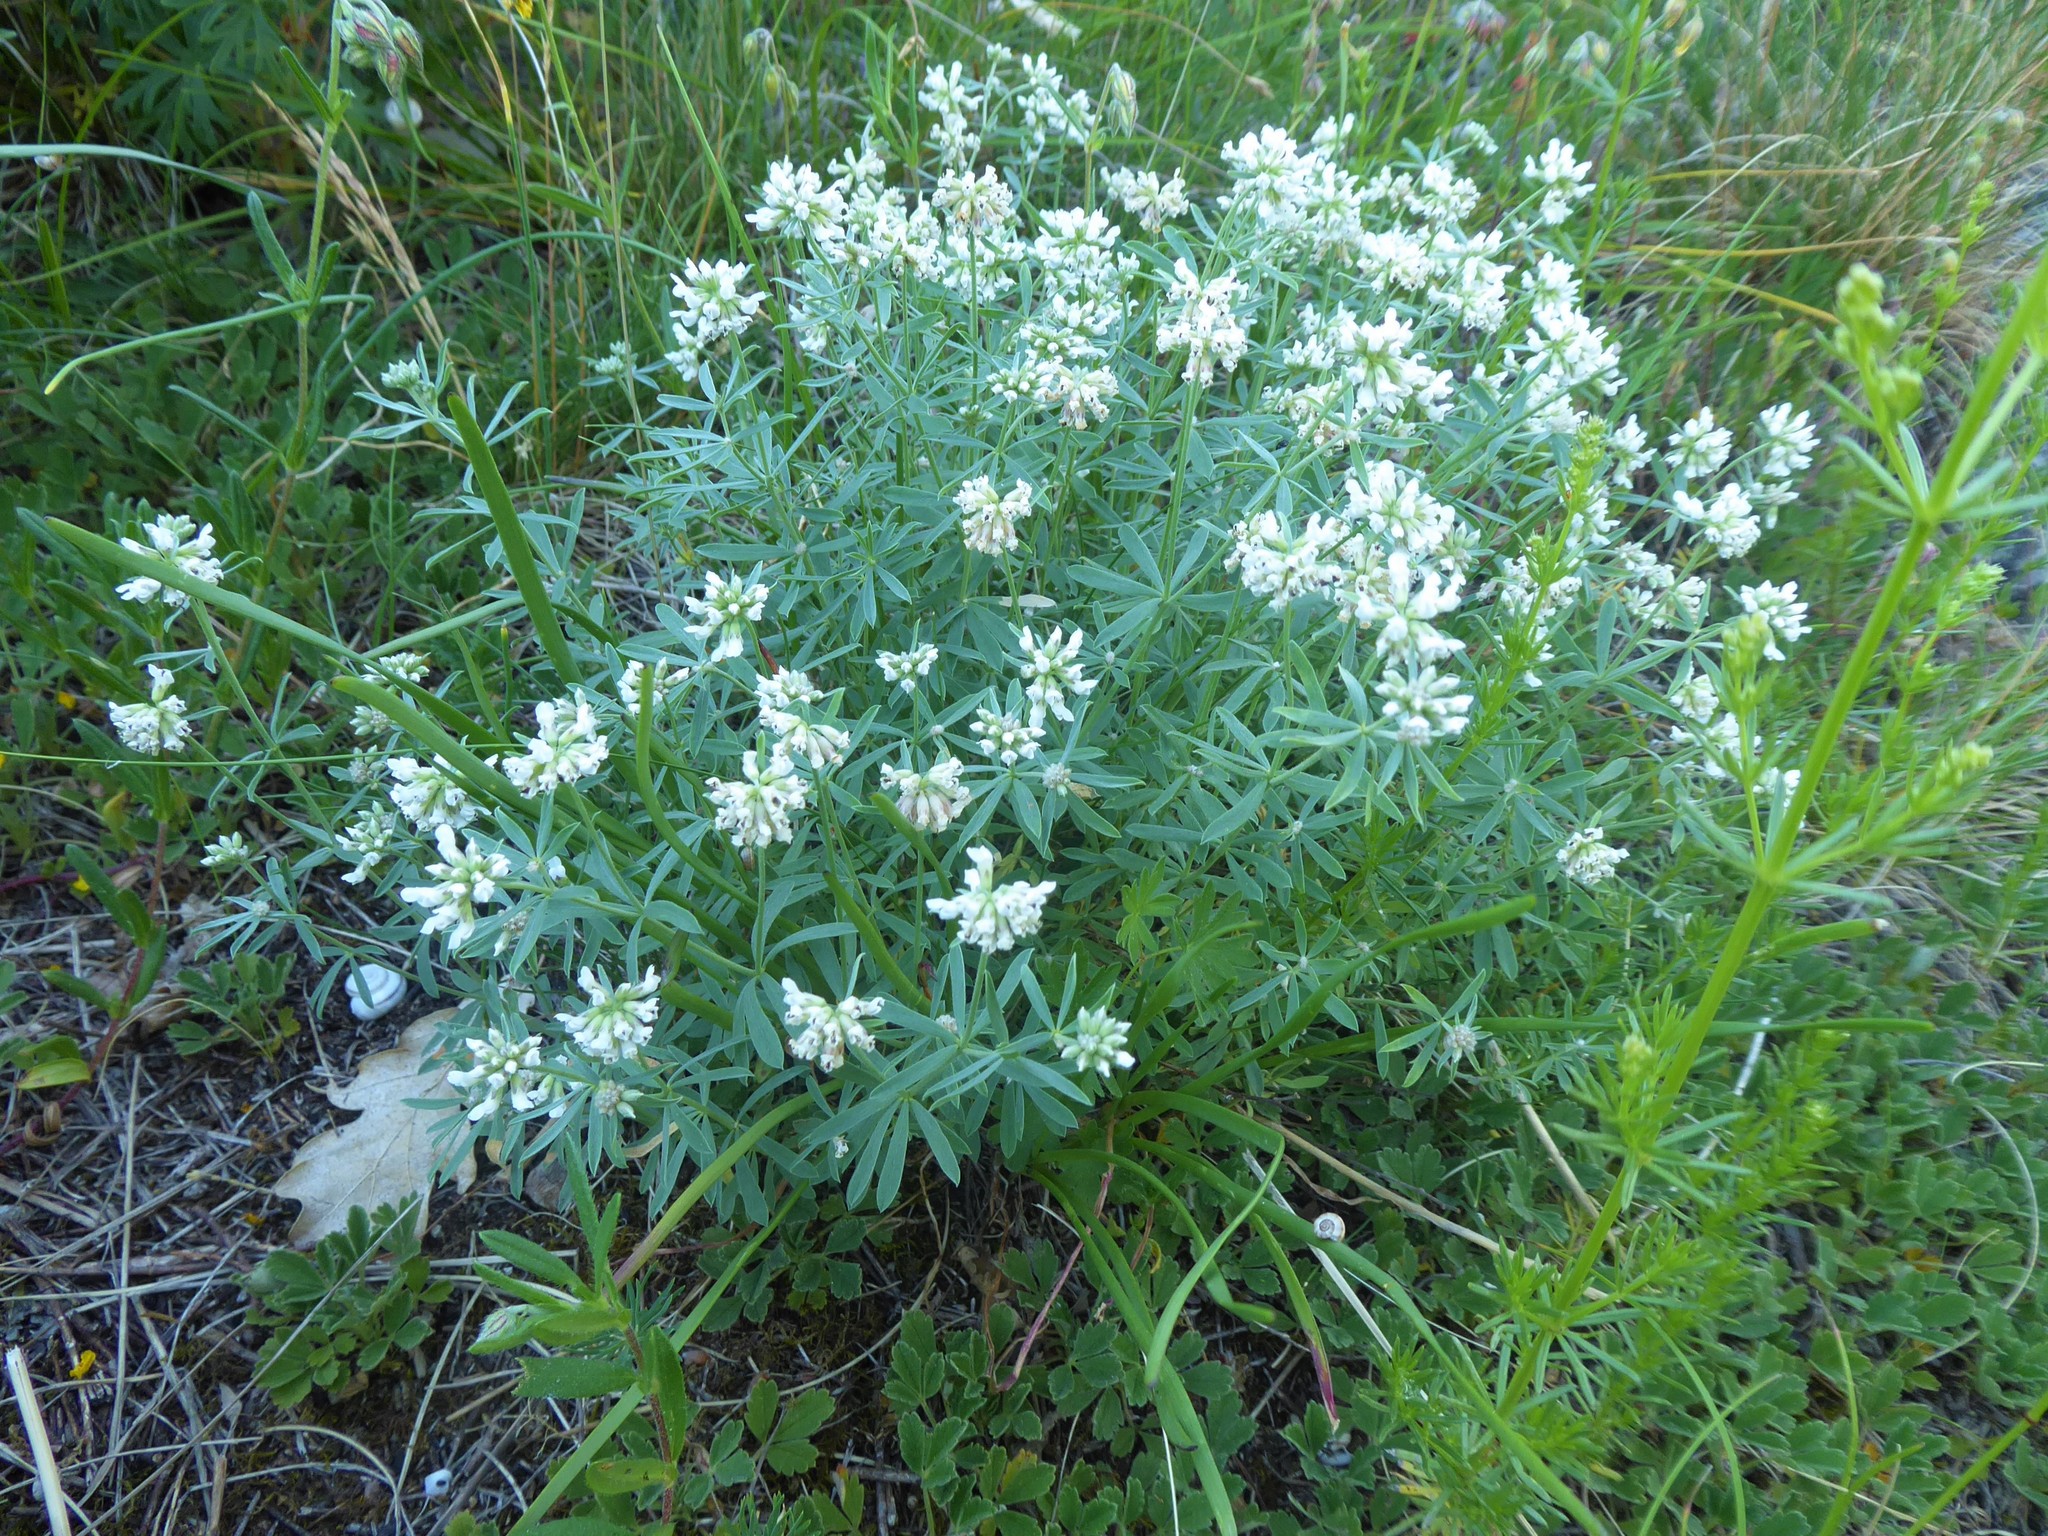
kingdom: Plantae
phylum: Tracheophyta
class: Magnoliopsida
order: Fabales
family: Fabaceae
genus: Lotus
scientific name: Lotus germanicus
